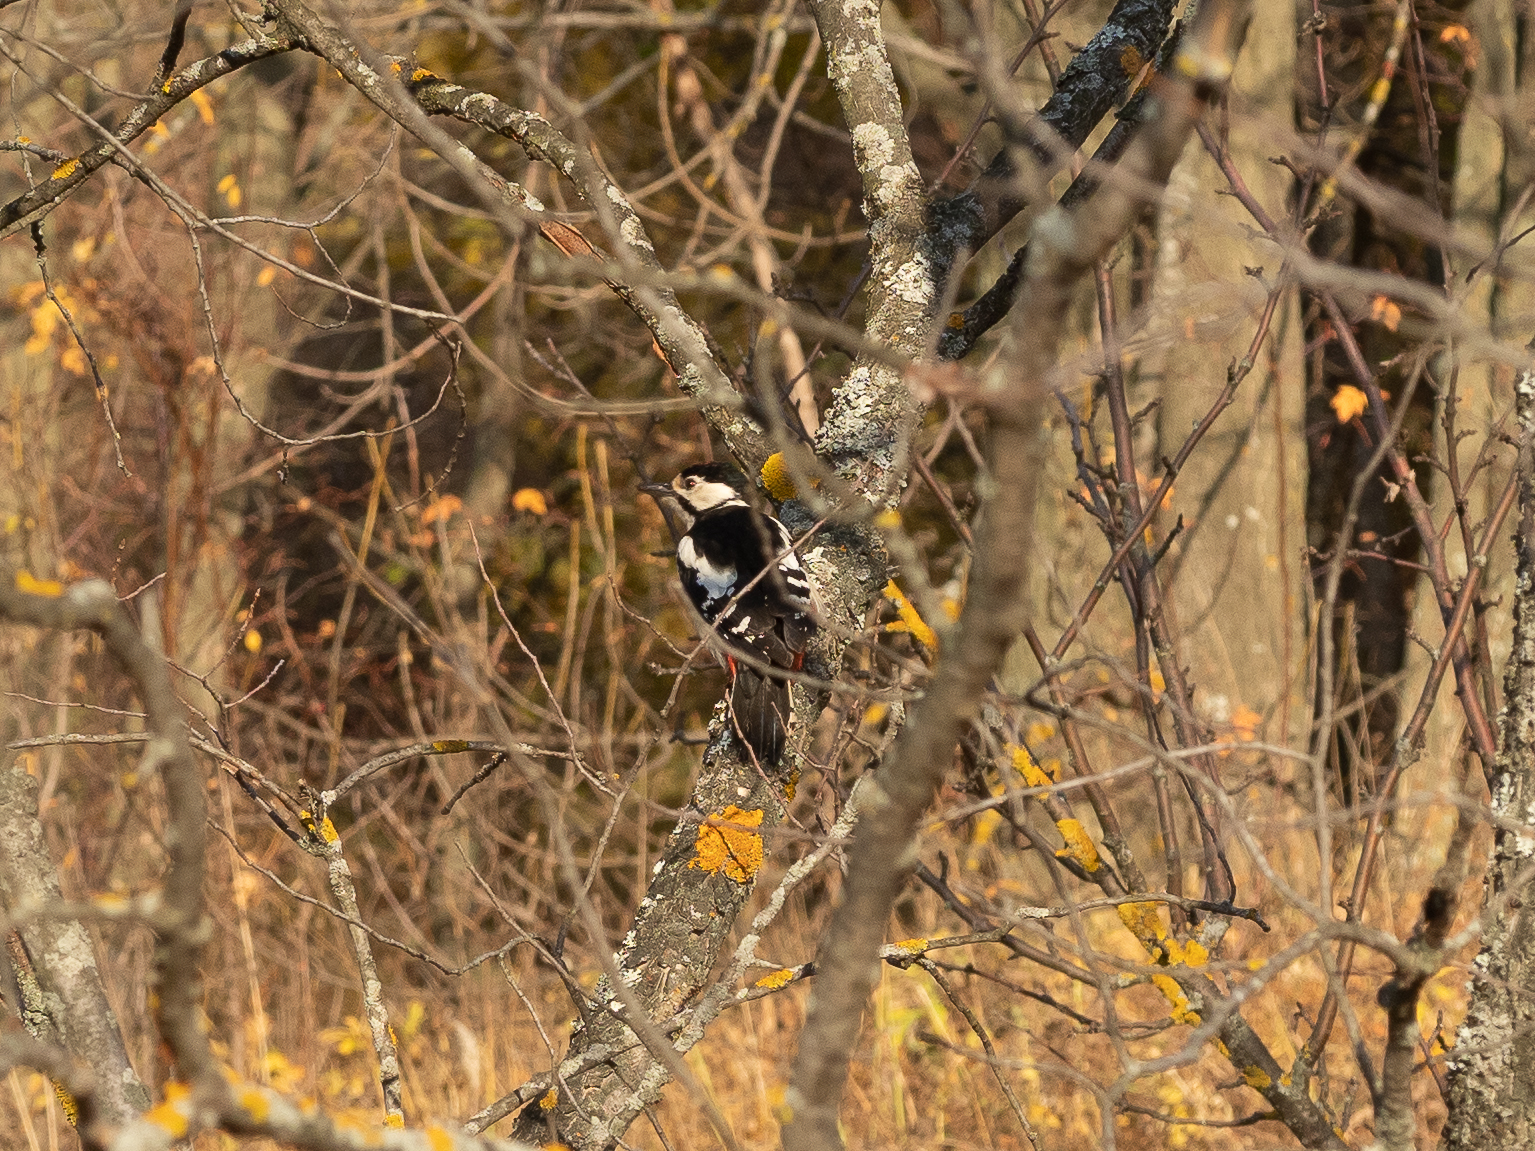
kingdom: Animalia
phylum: Chordata
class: Aves
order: Piciformes
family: Picidae
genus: Dendrocopos
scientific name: Dendrocopos major
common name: Great spotted woodpecker
